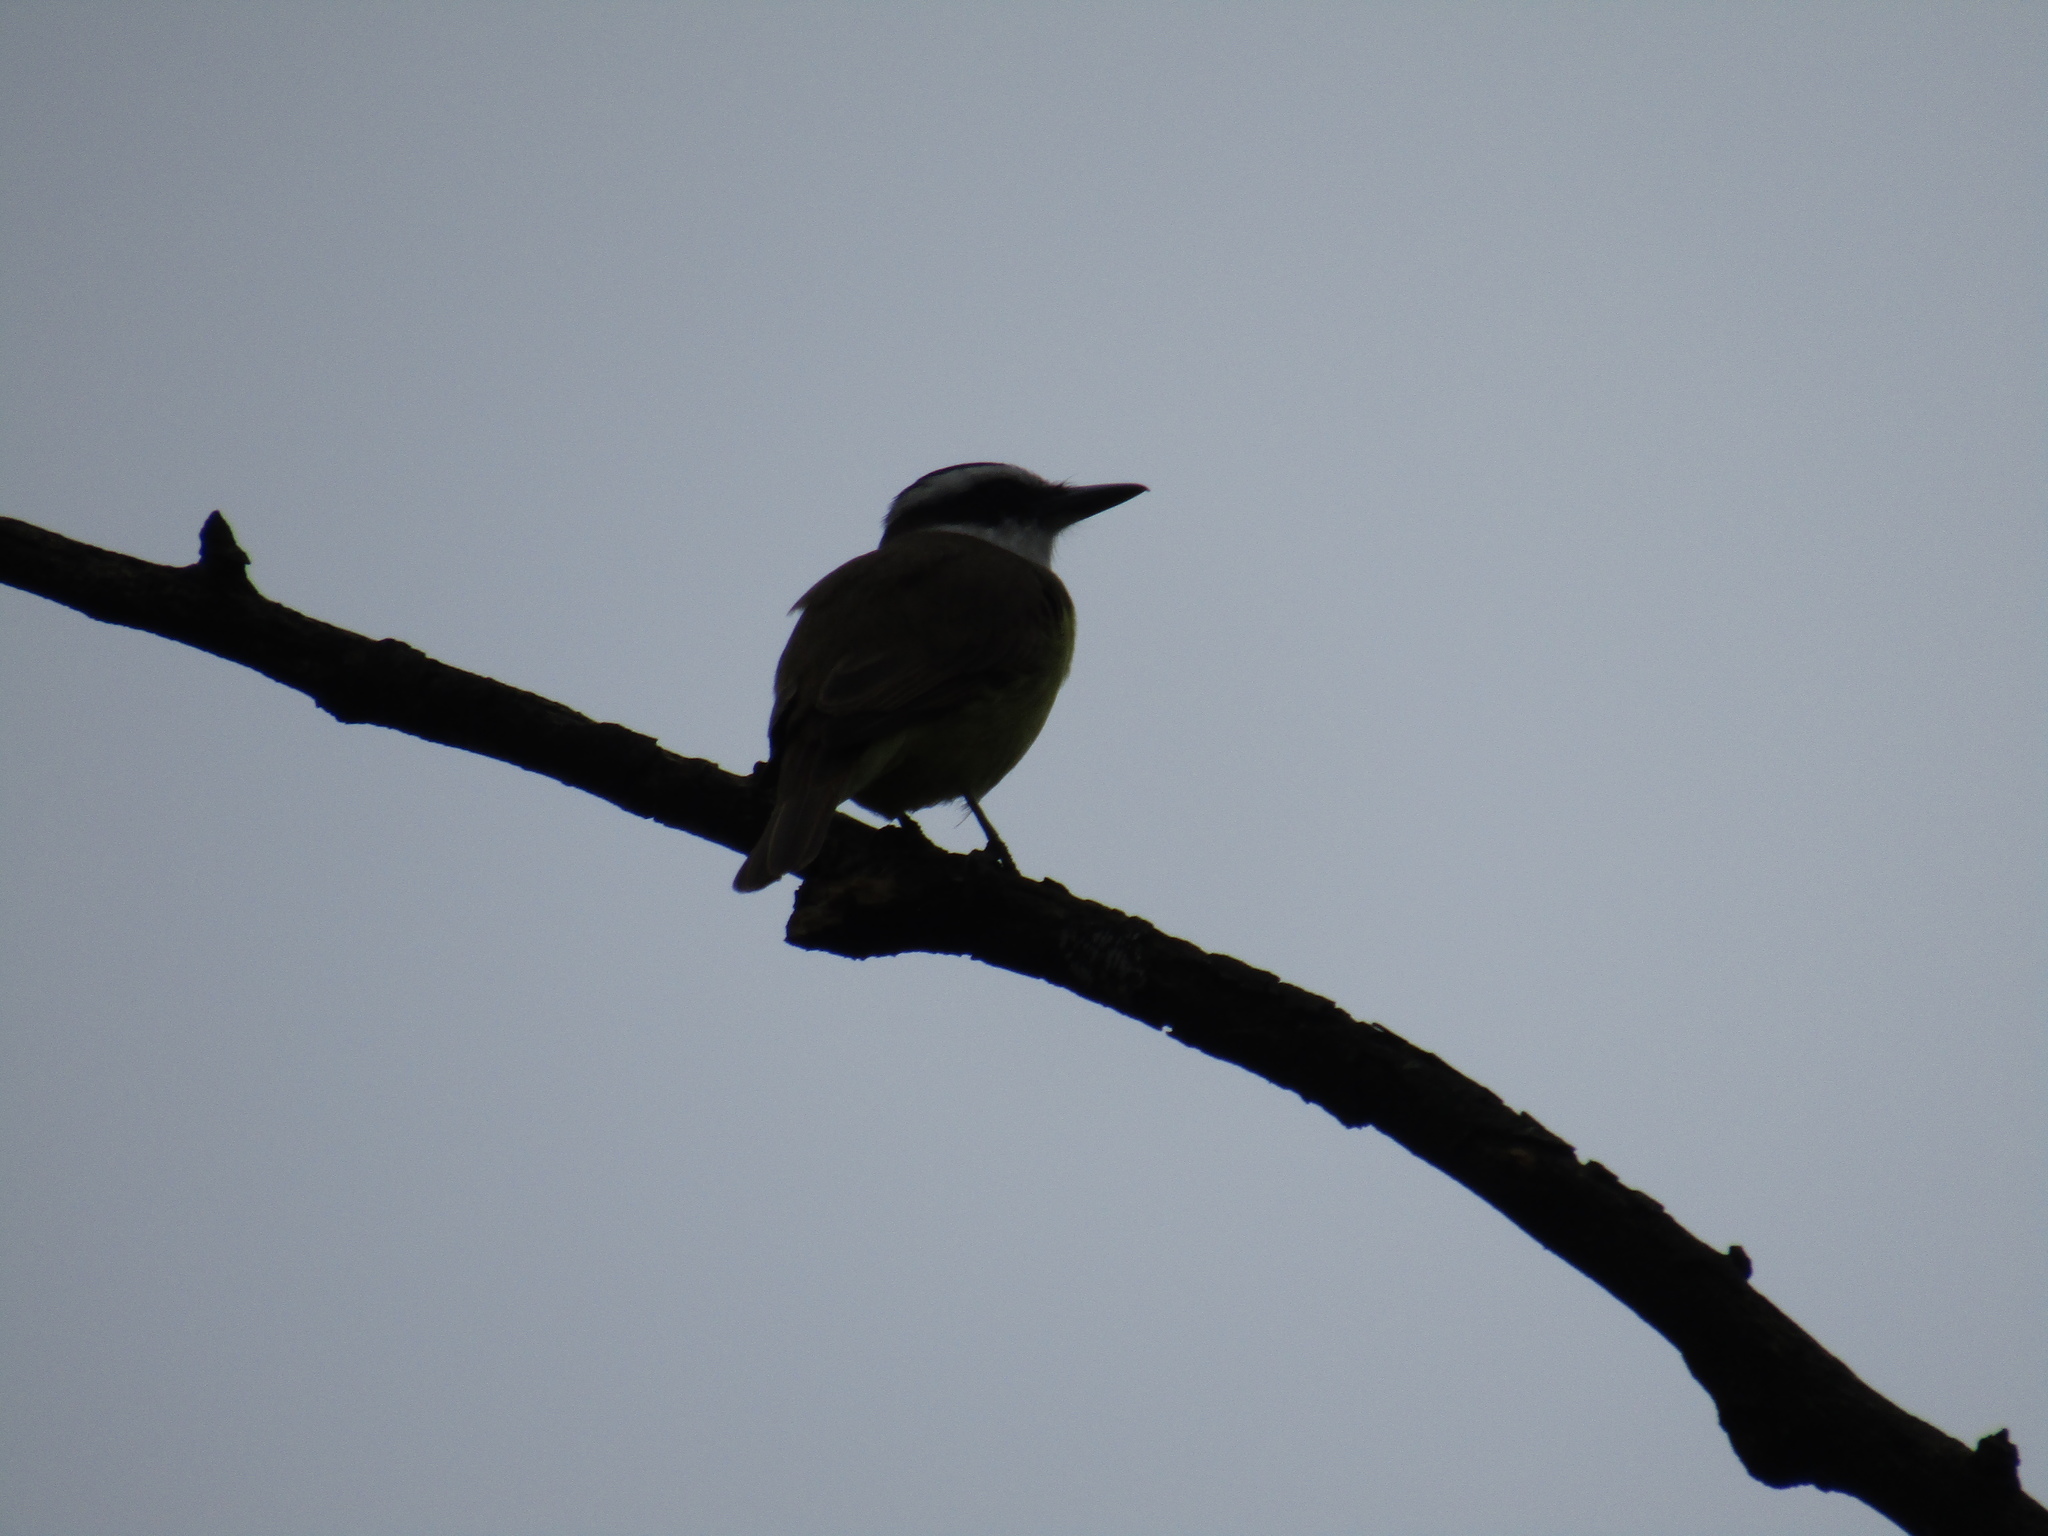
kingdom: Animalia
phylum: Chordata
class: Aves
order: Passeriformes
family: Tyrannidae
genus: Pitangus
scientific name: Pitangus sulphuratus
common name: Great kiskadee
